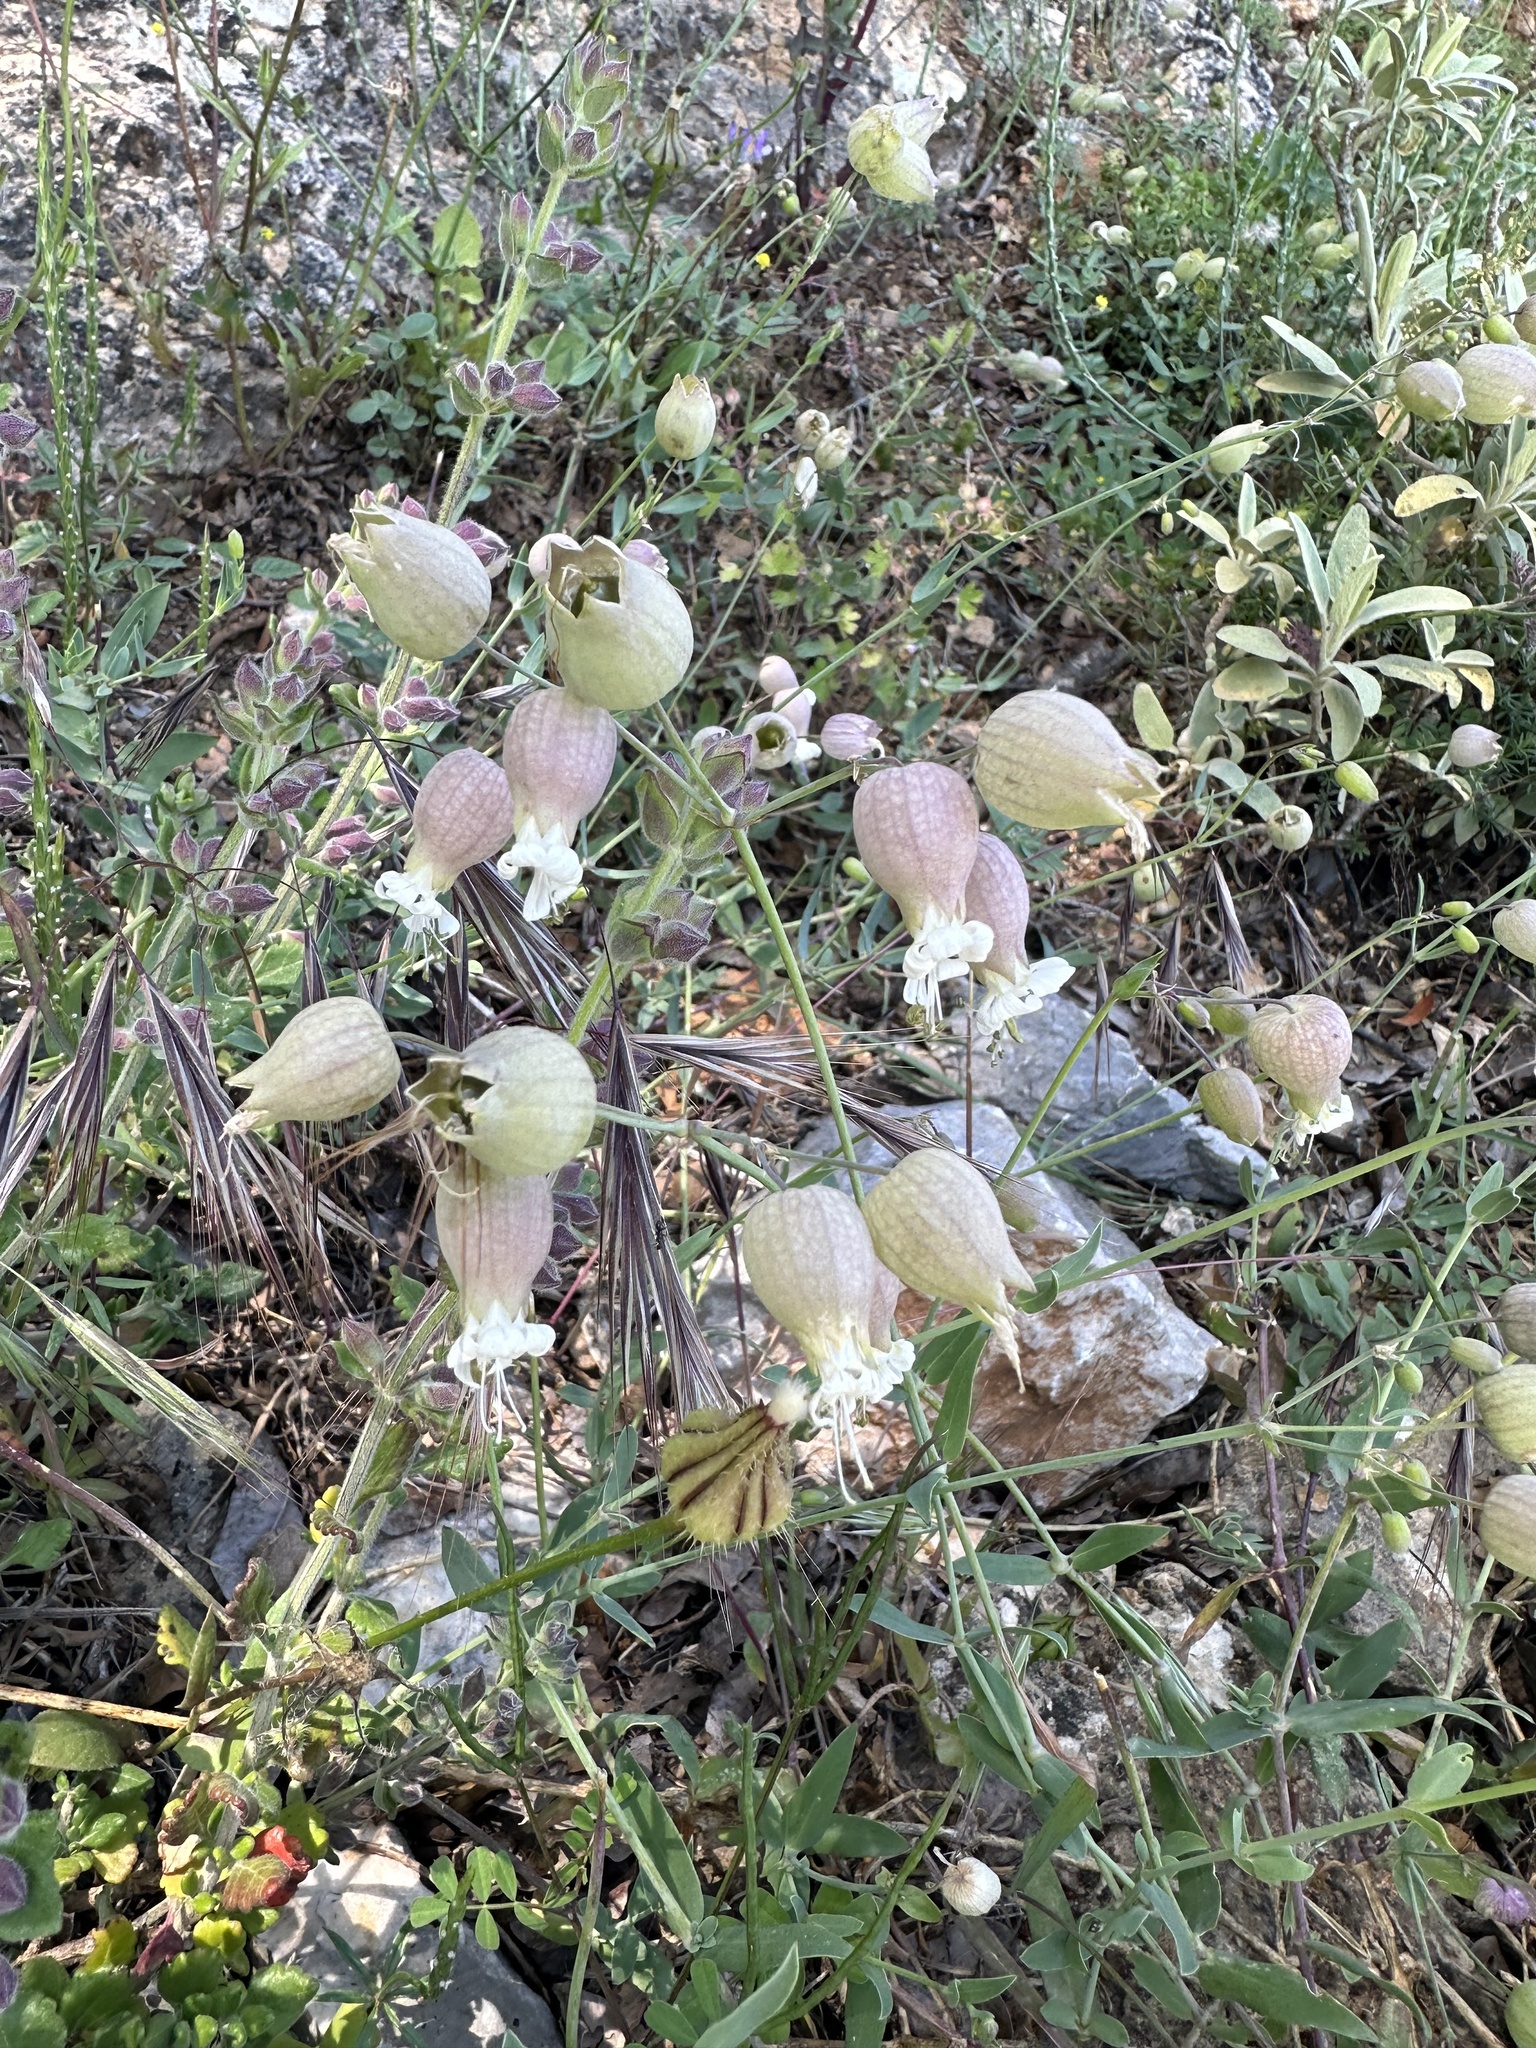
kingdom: Plantae
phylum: Tracheophyta
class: Magnoliopsida
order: Caryophyllales
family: Caryophyllaceae
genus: Silene
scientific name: Silene vulgaris
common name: Bladder campion
